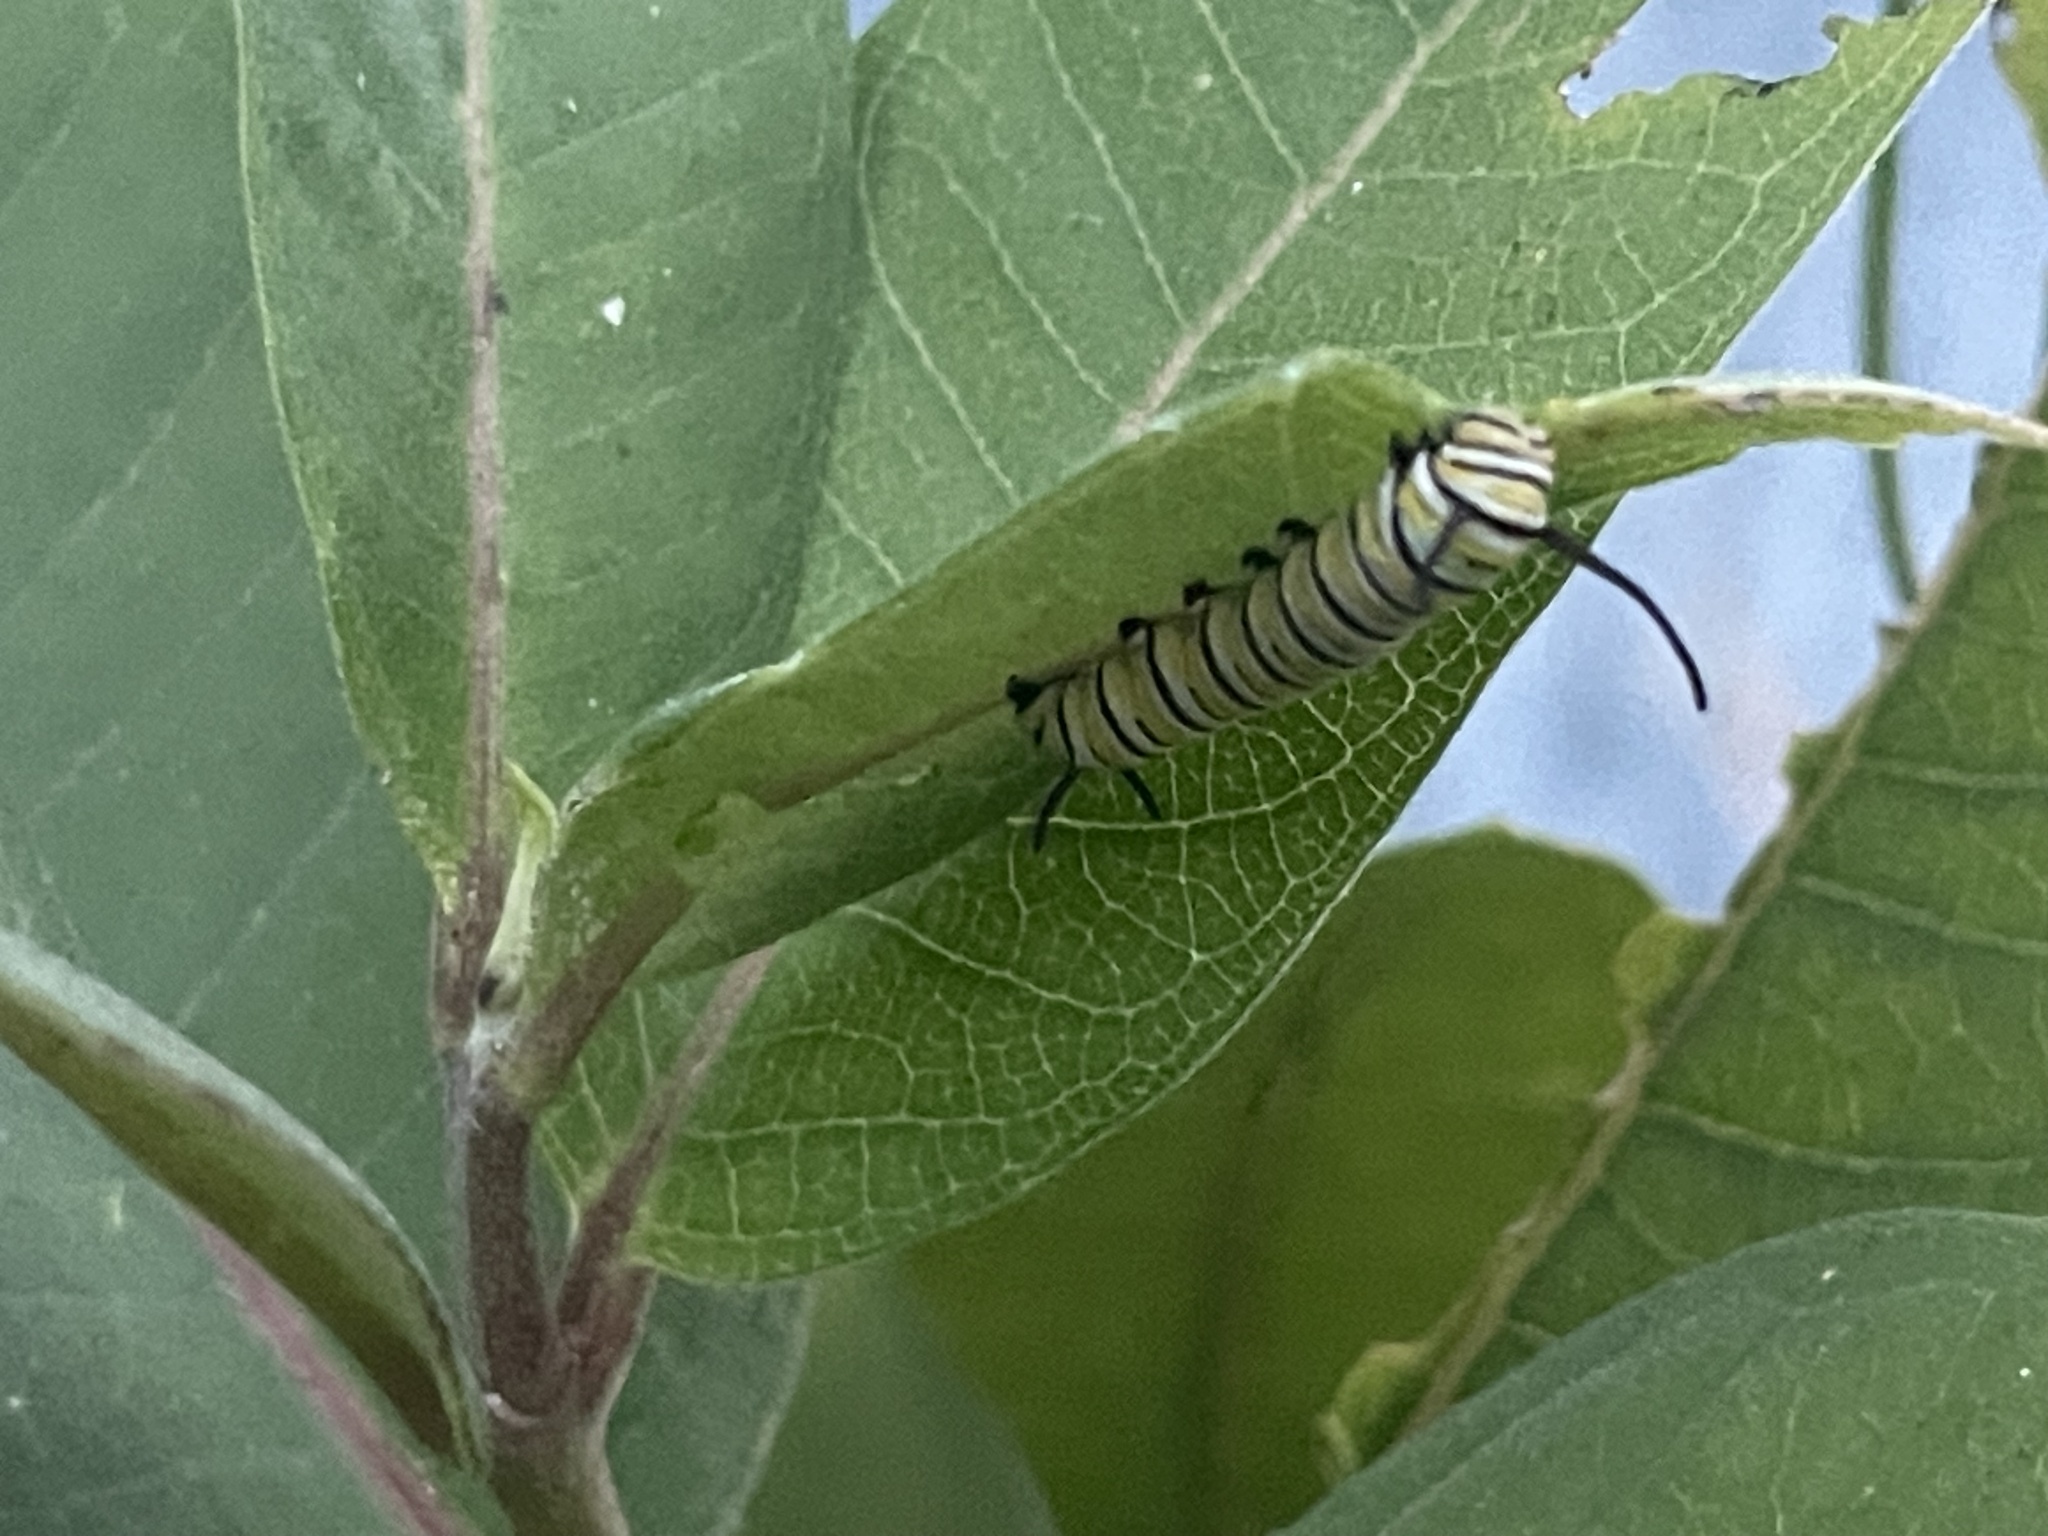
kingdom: Animalia
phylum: Arthropoda
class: Insecta
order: Lepidoptera
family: Nymphalidae
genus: Danaus
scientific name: Danaus plexippus
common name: Monarch
